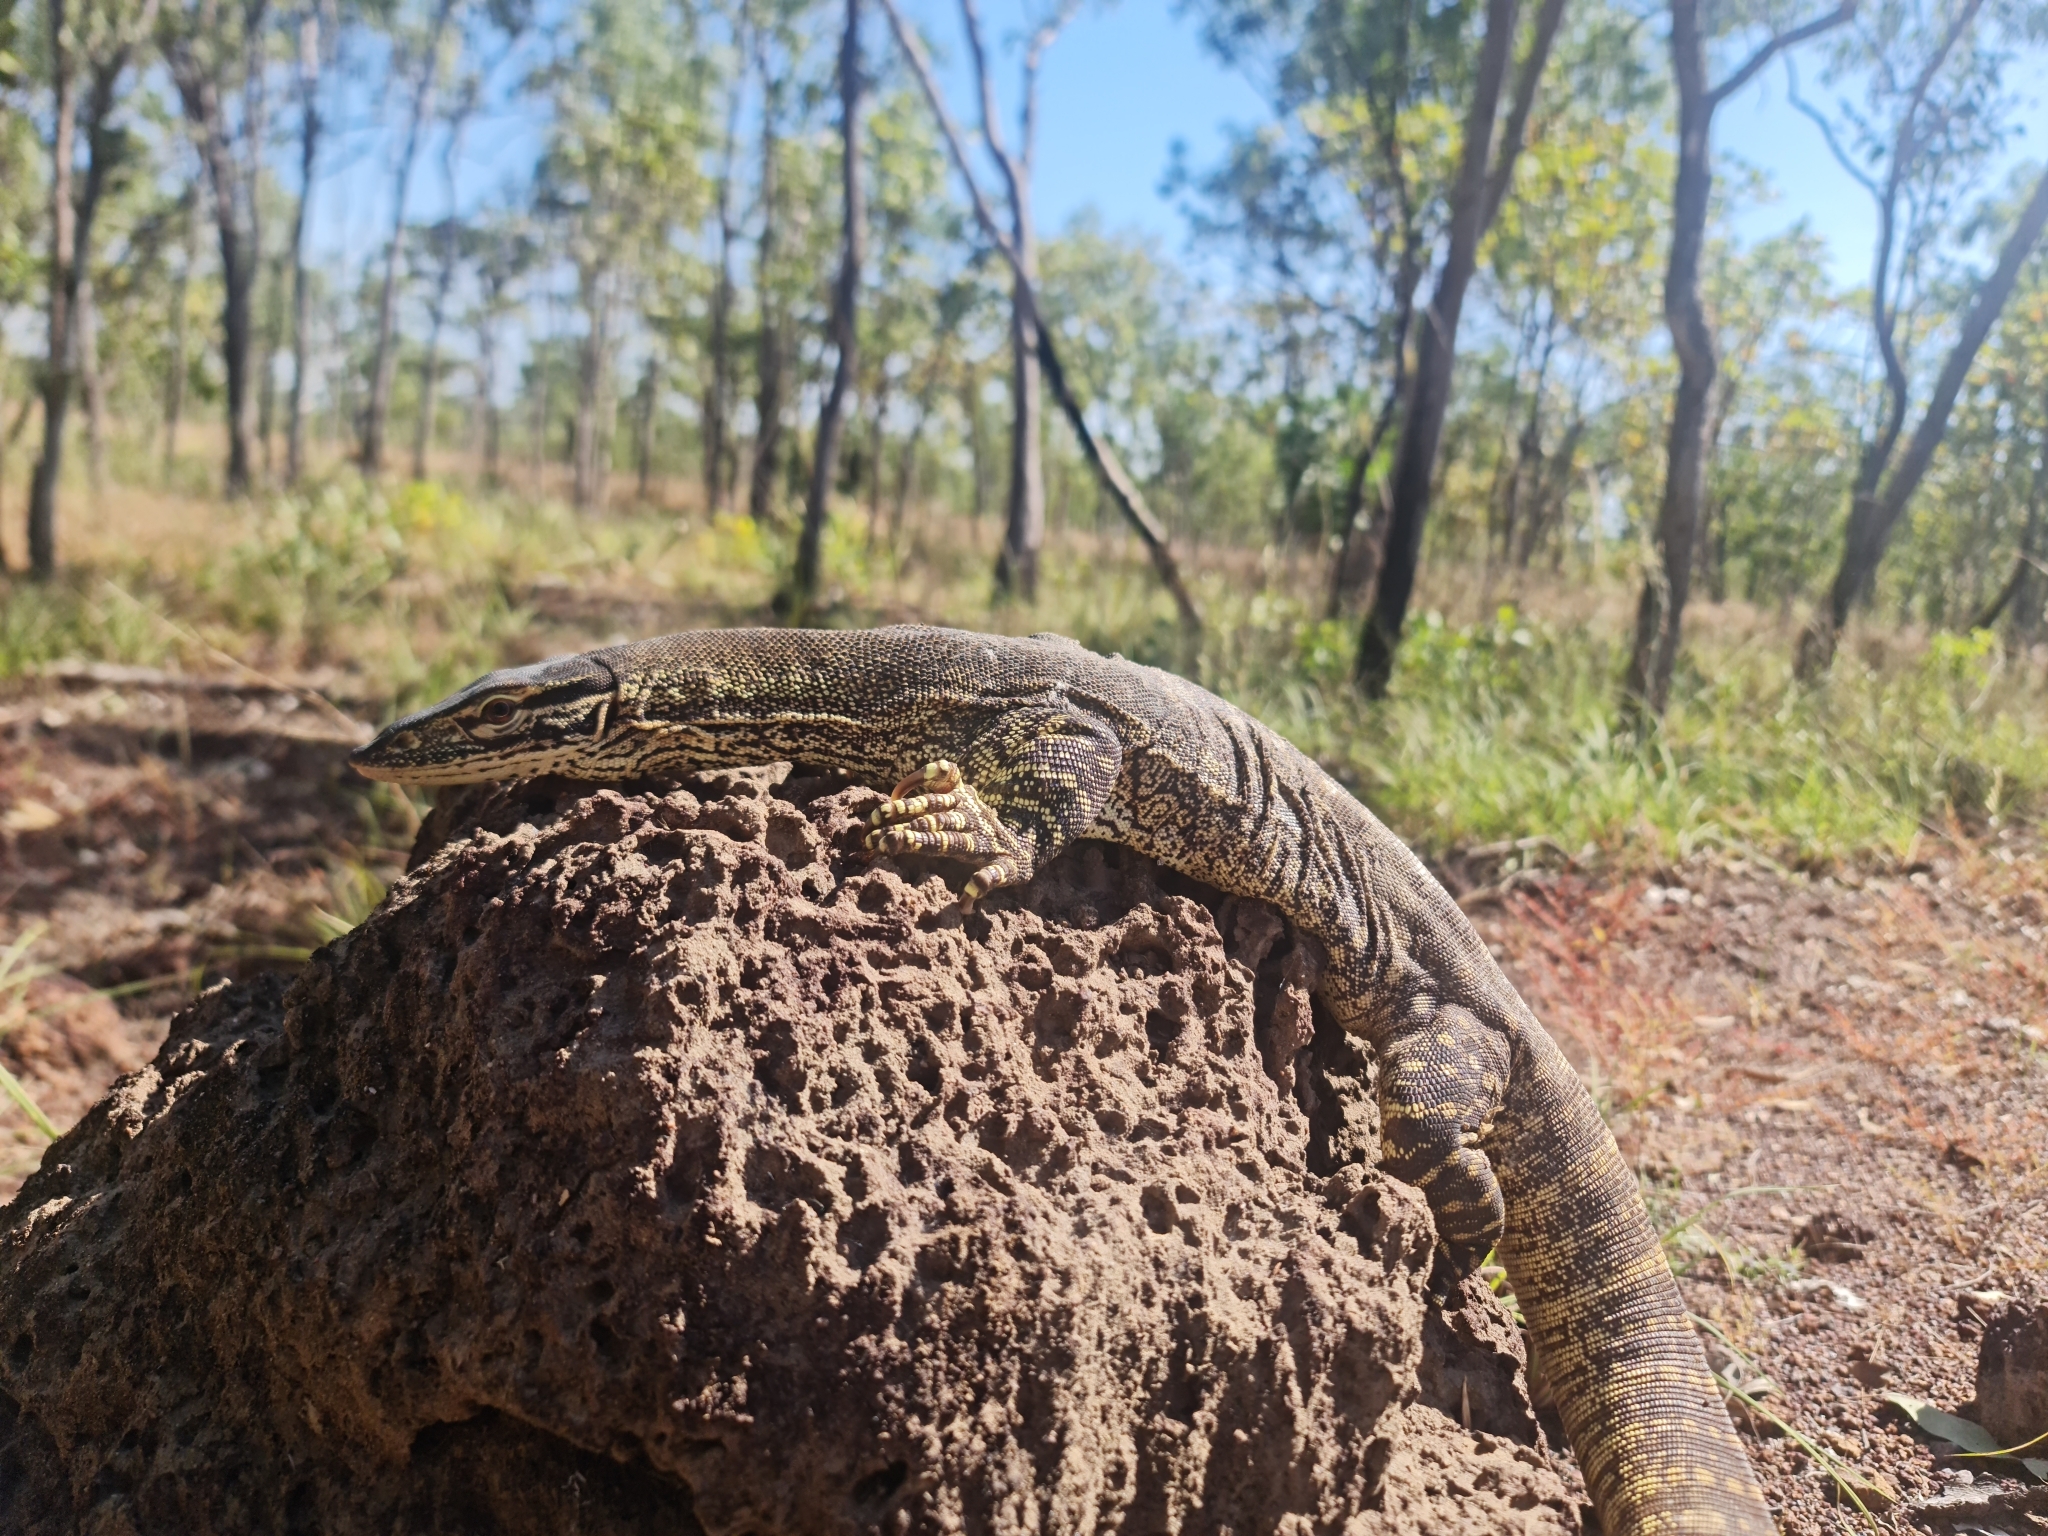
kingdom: Animalia
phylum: Chordata
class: Squamata
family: Varanidae
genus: Varanus
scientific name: Varanus gouldii
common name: Gould's goanna
